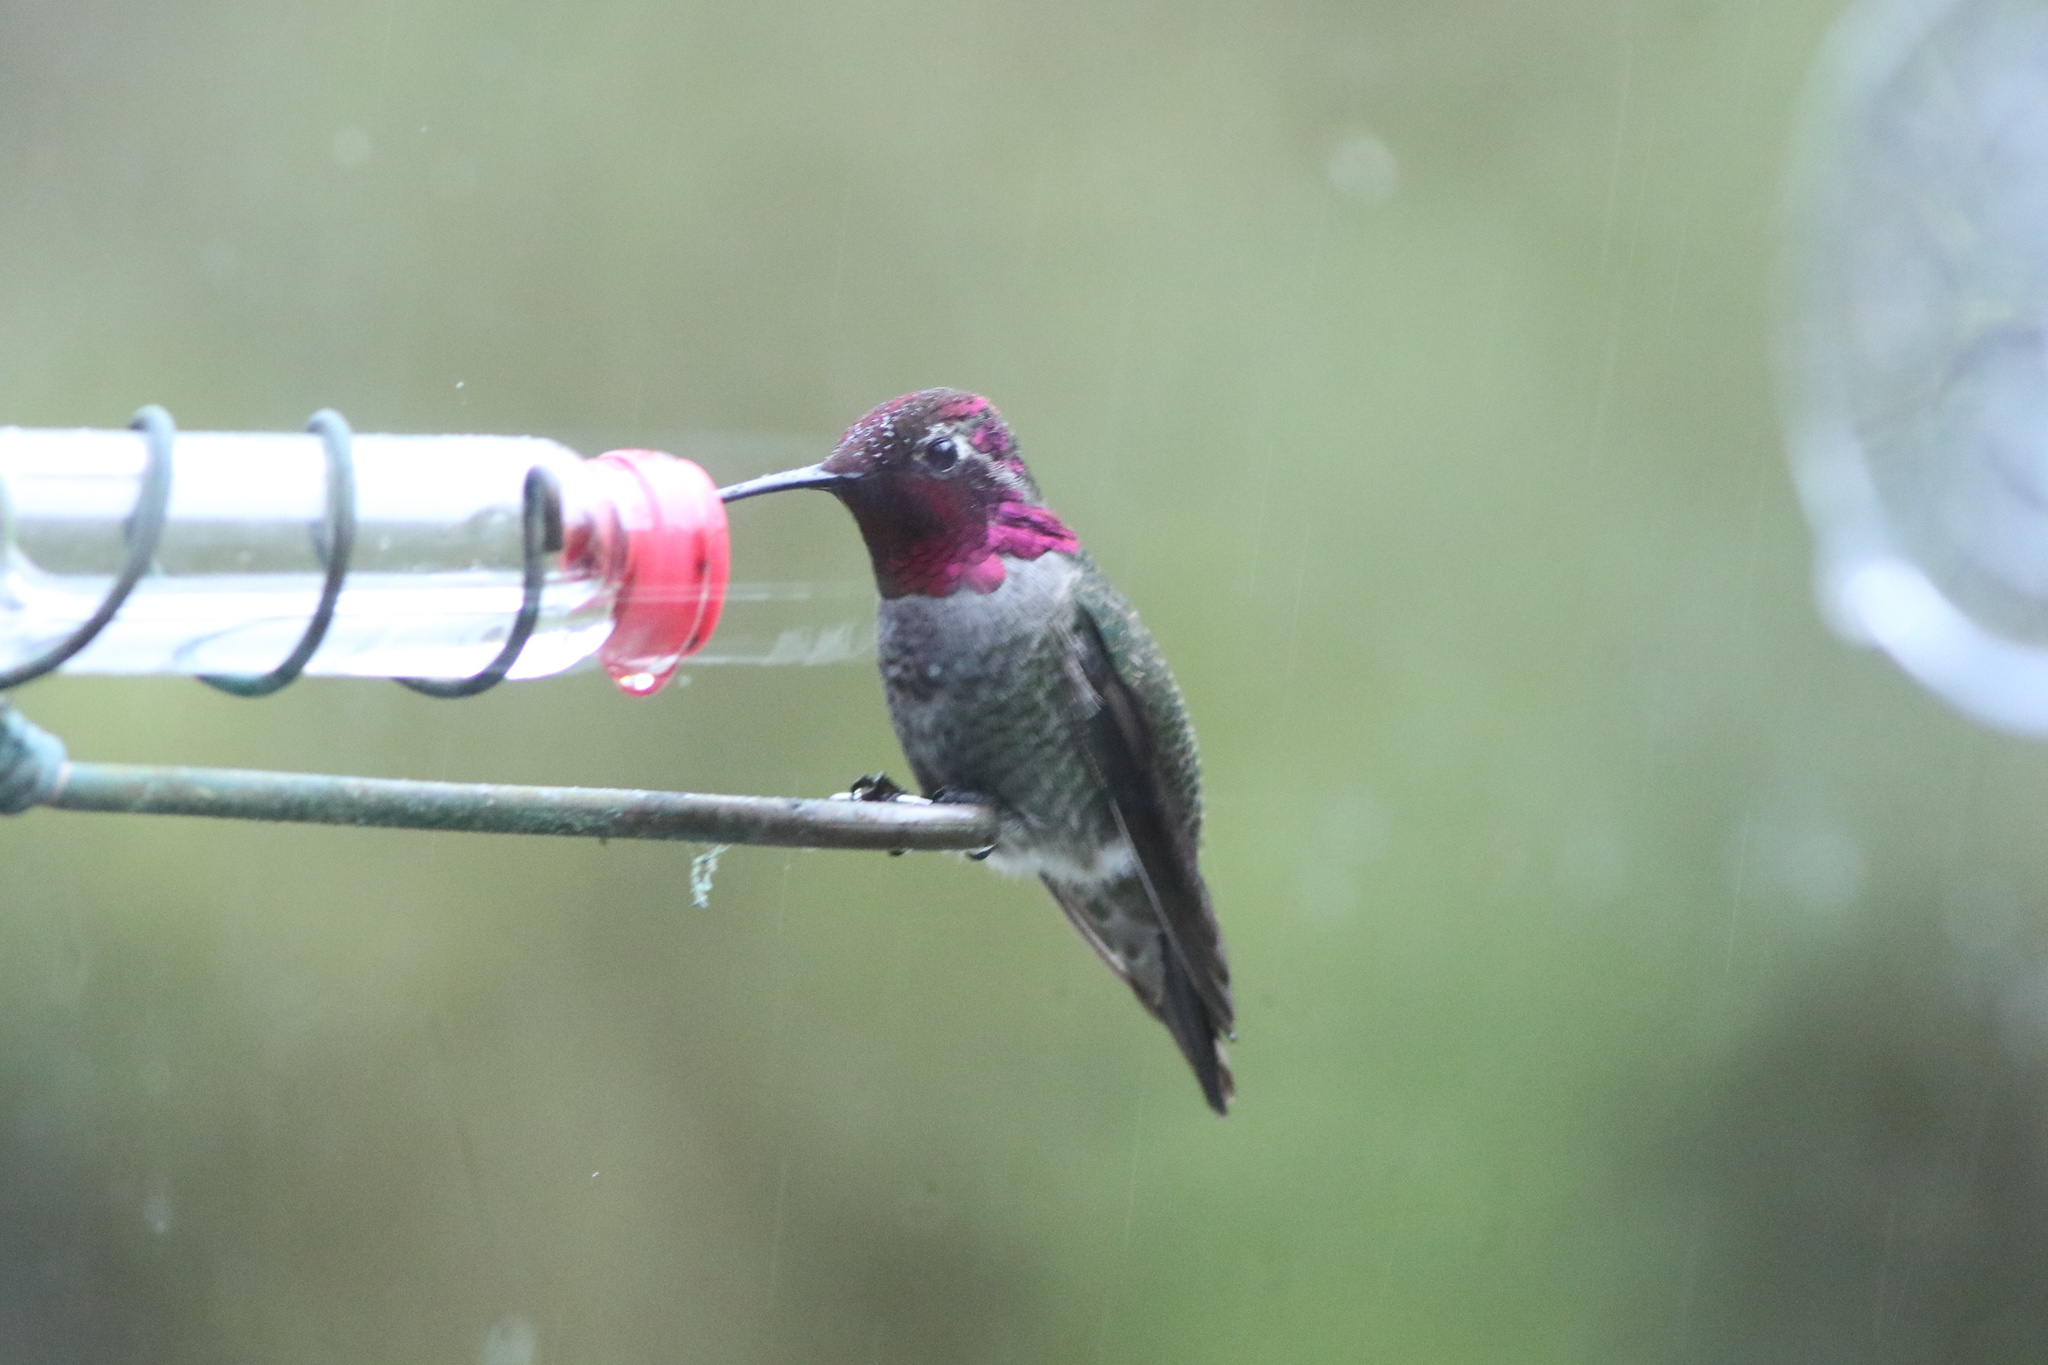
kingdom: Animalia
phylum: Chordata
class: Aves
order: Apodiformes
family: Trochilidae
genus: Calypte
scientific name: Calypte anna
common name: Anna's hummingbird
